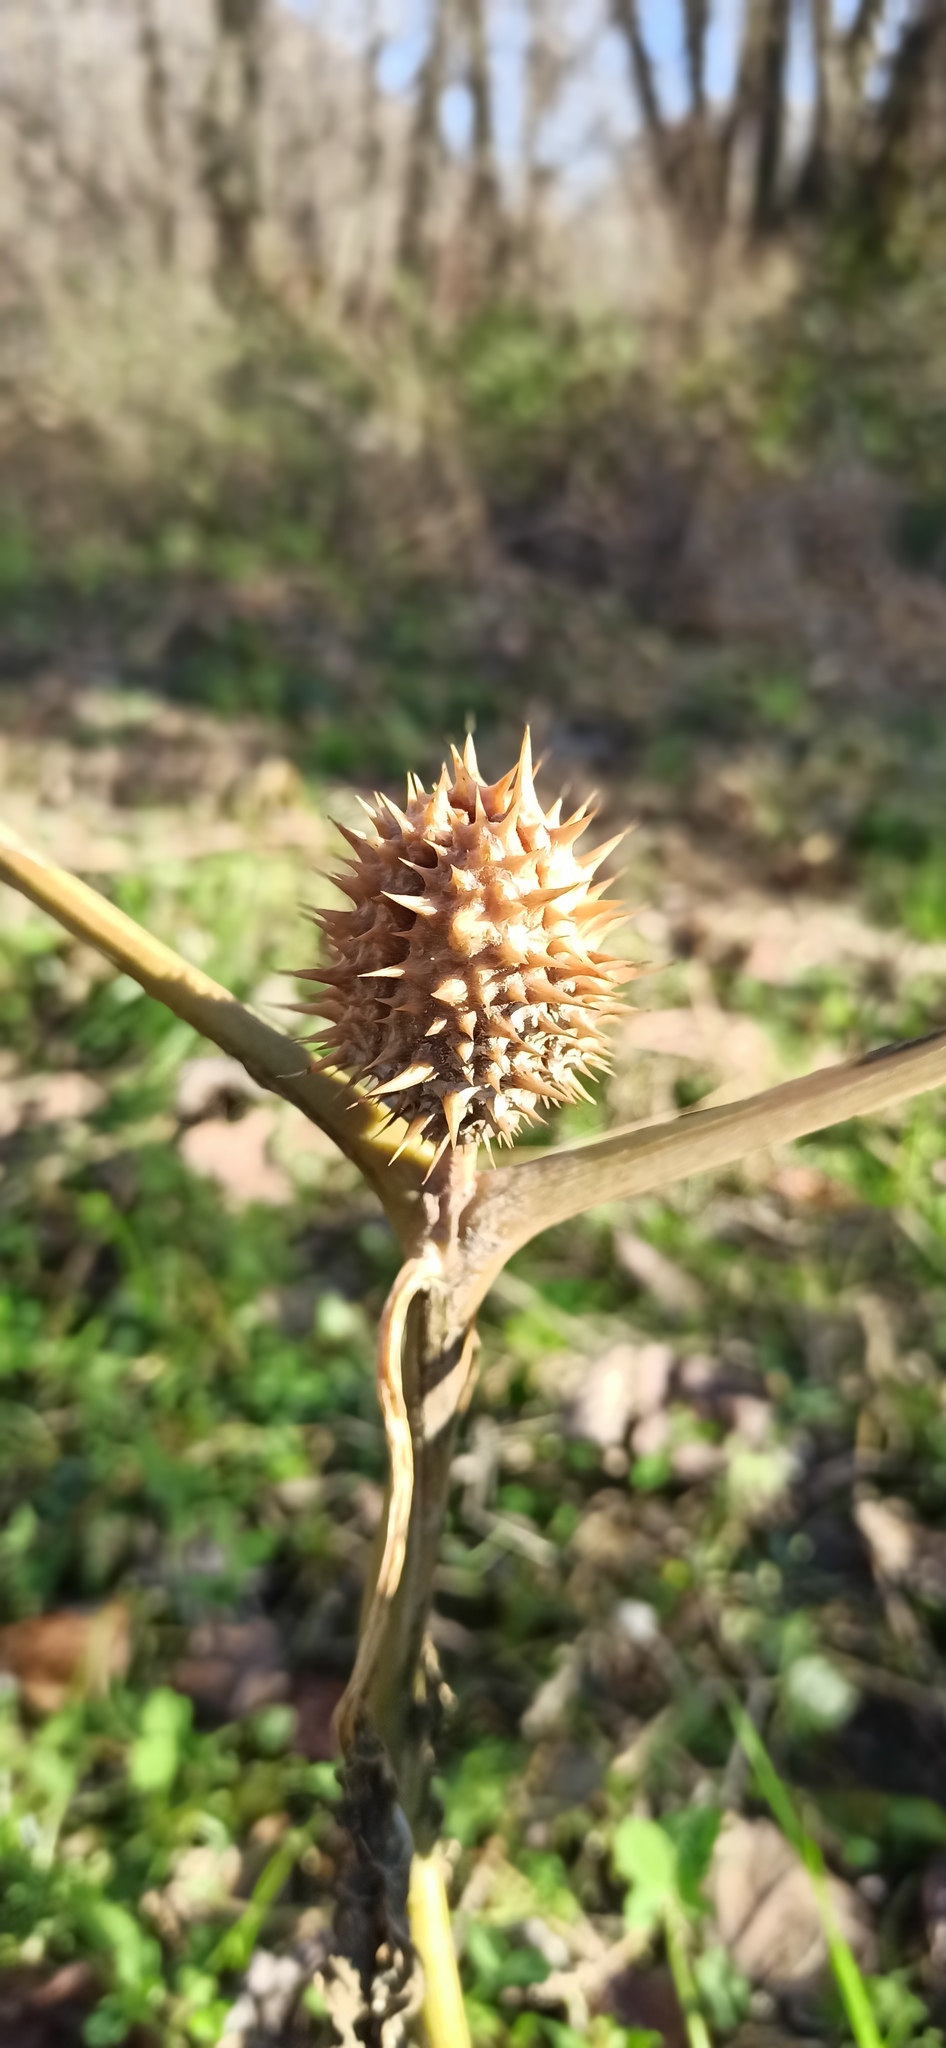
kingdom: Plantae
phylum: Tracheophyta
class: Magnoliopsida
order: Solanales
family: Solanaceae
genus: Datura
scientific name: Datura stramonium
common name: Thorn-apple
